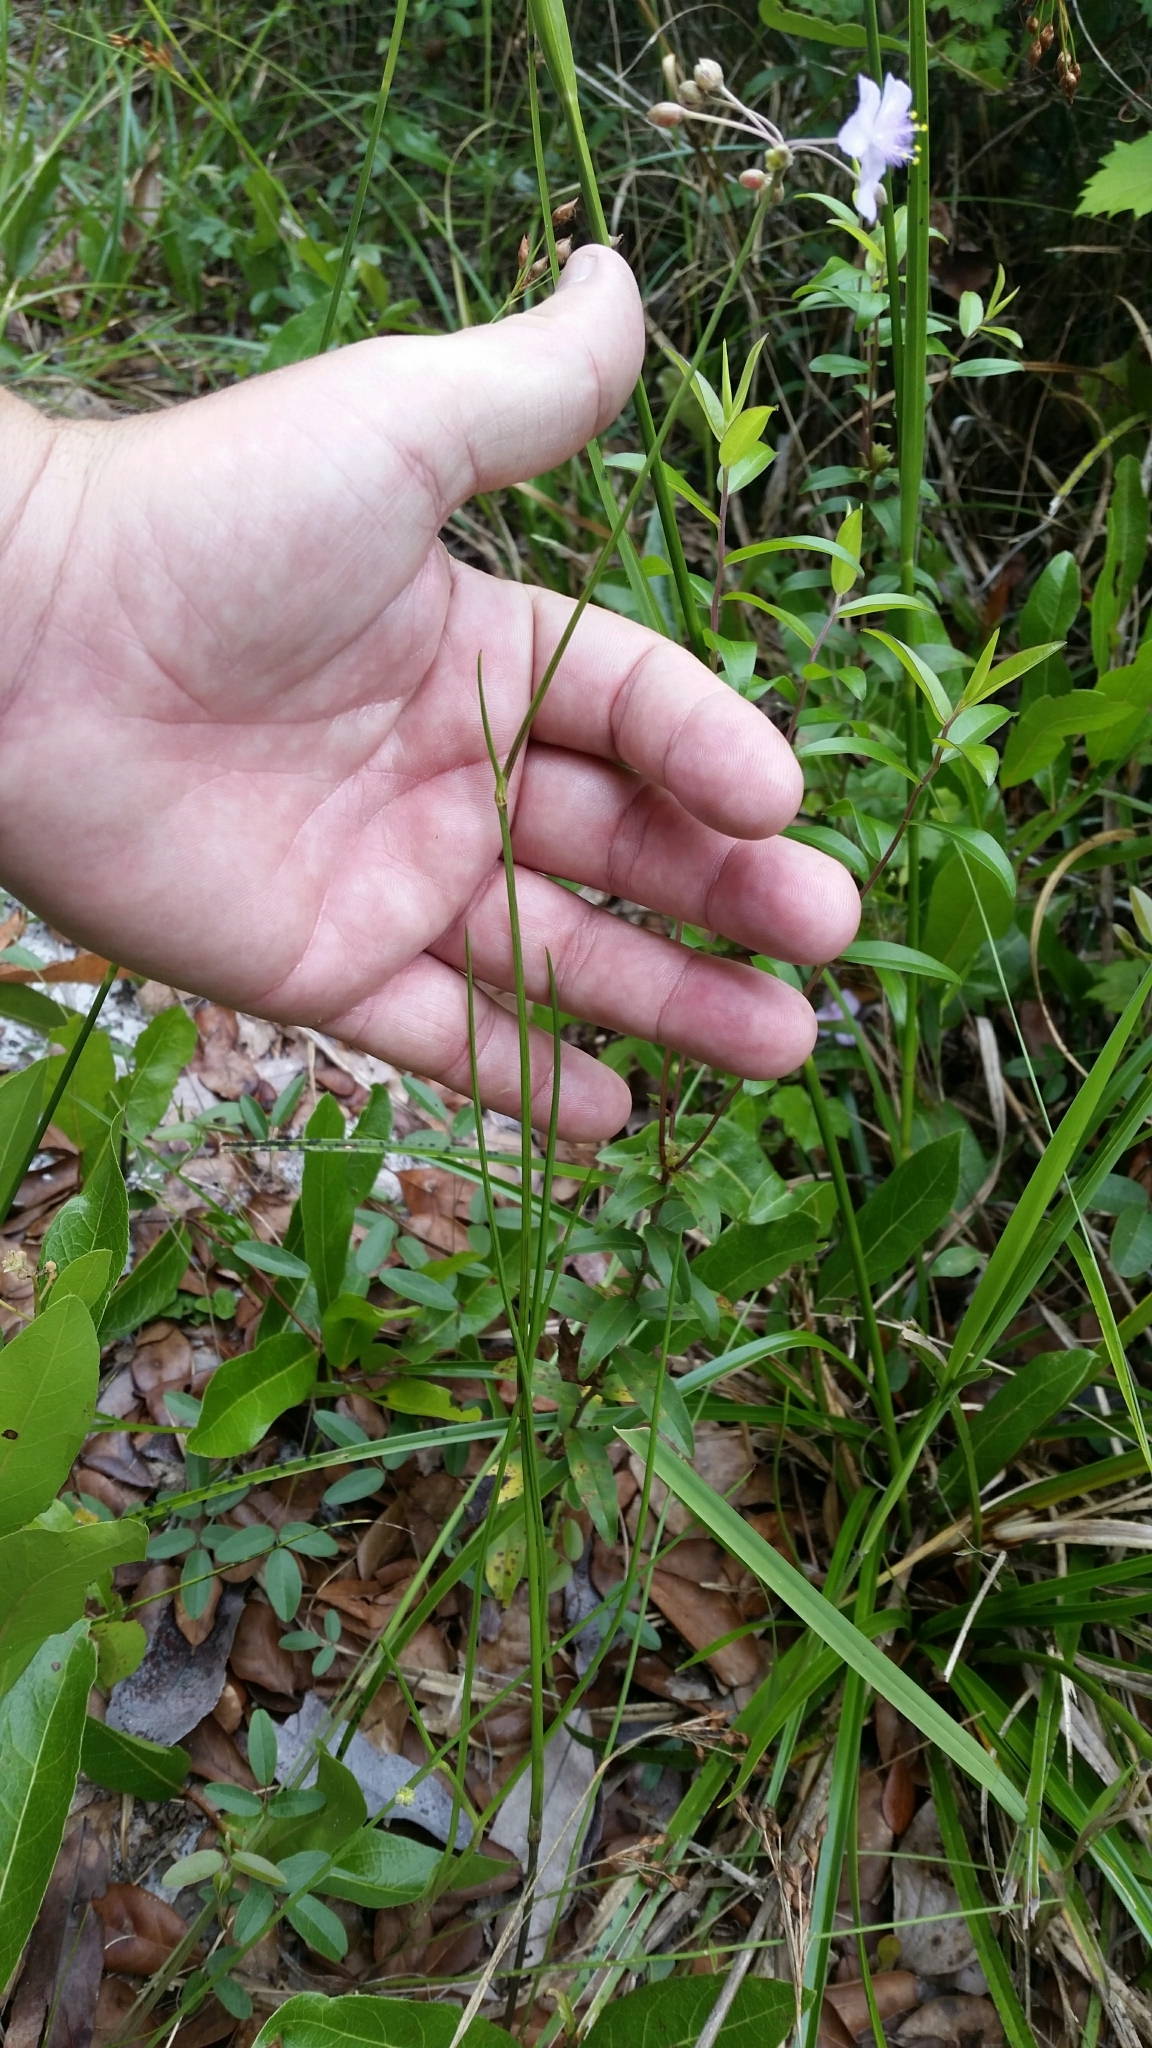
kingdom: Plantae
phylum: Tracheophyta
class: Liliopsida
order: Commelinales
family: Commelinaceae
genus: Callisia
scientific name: Callisia ornata
